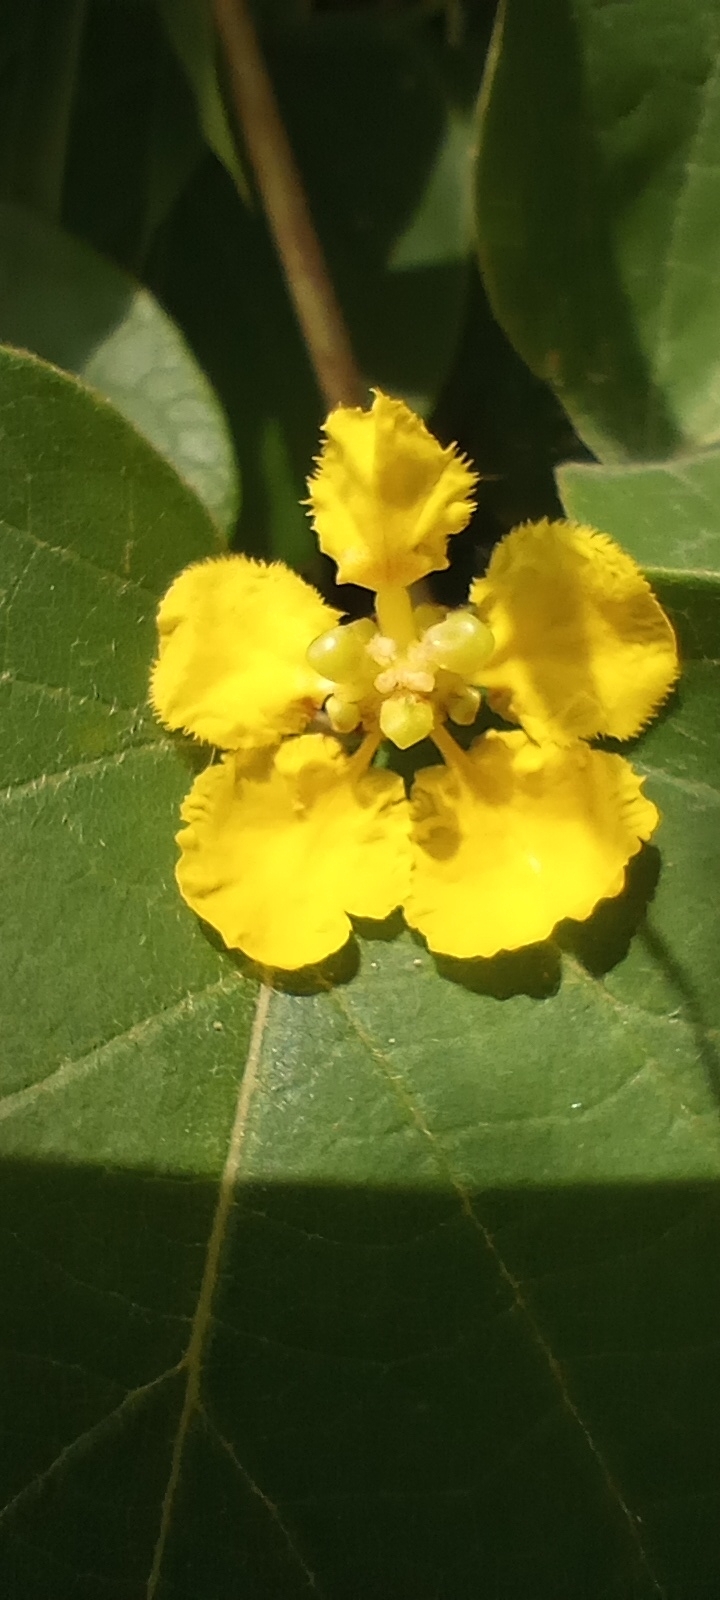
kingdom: Plantae
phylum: Tracheophyta
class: Magnoliopsida
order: Malpighiales
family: Malpighiaceae
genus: Stigmaphyllon
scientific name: Stigmaphyllon bonariense
